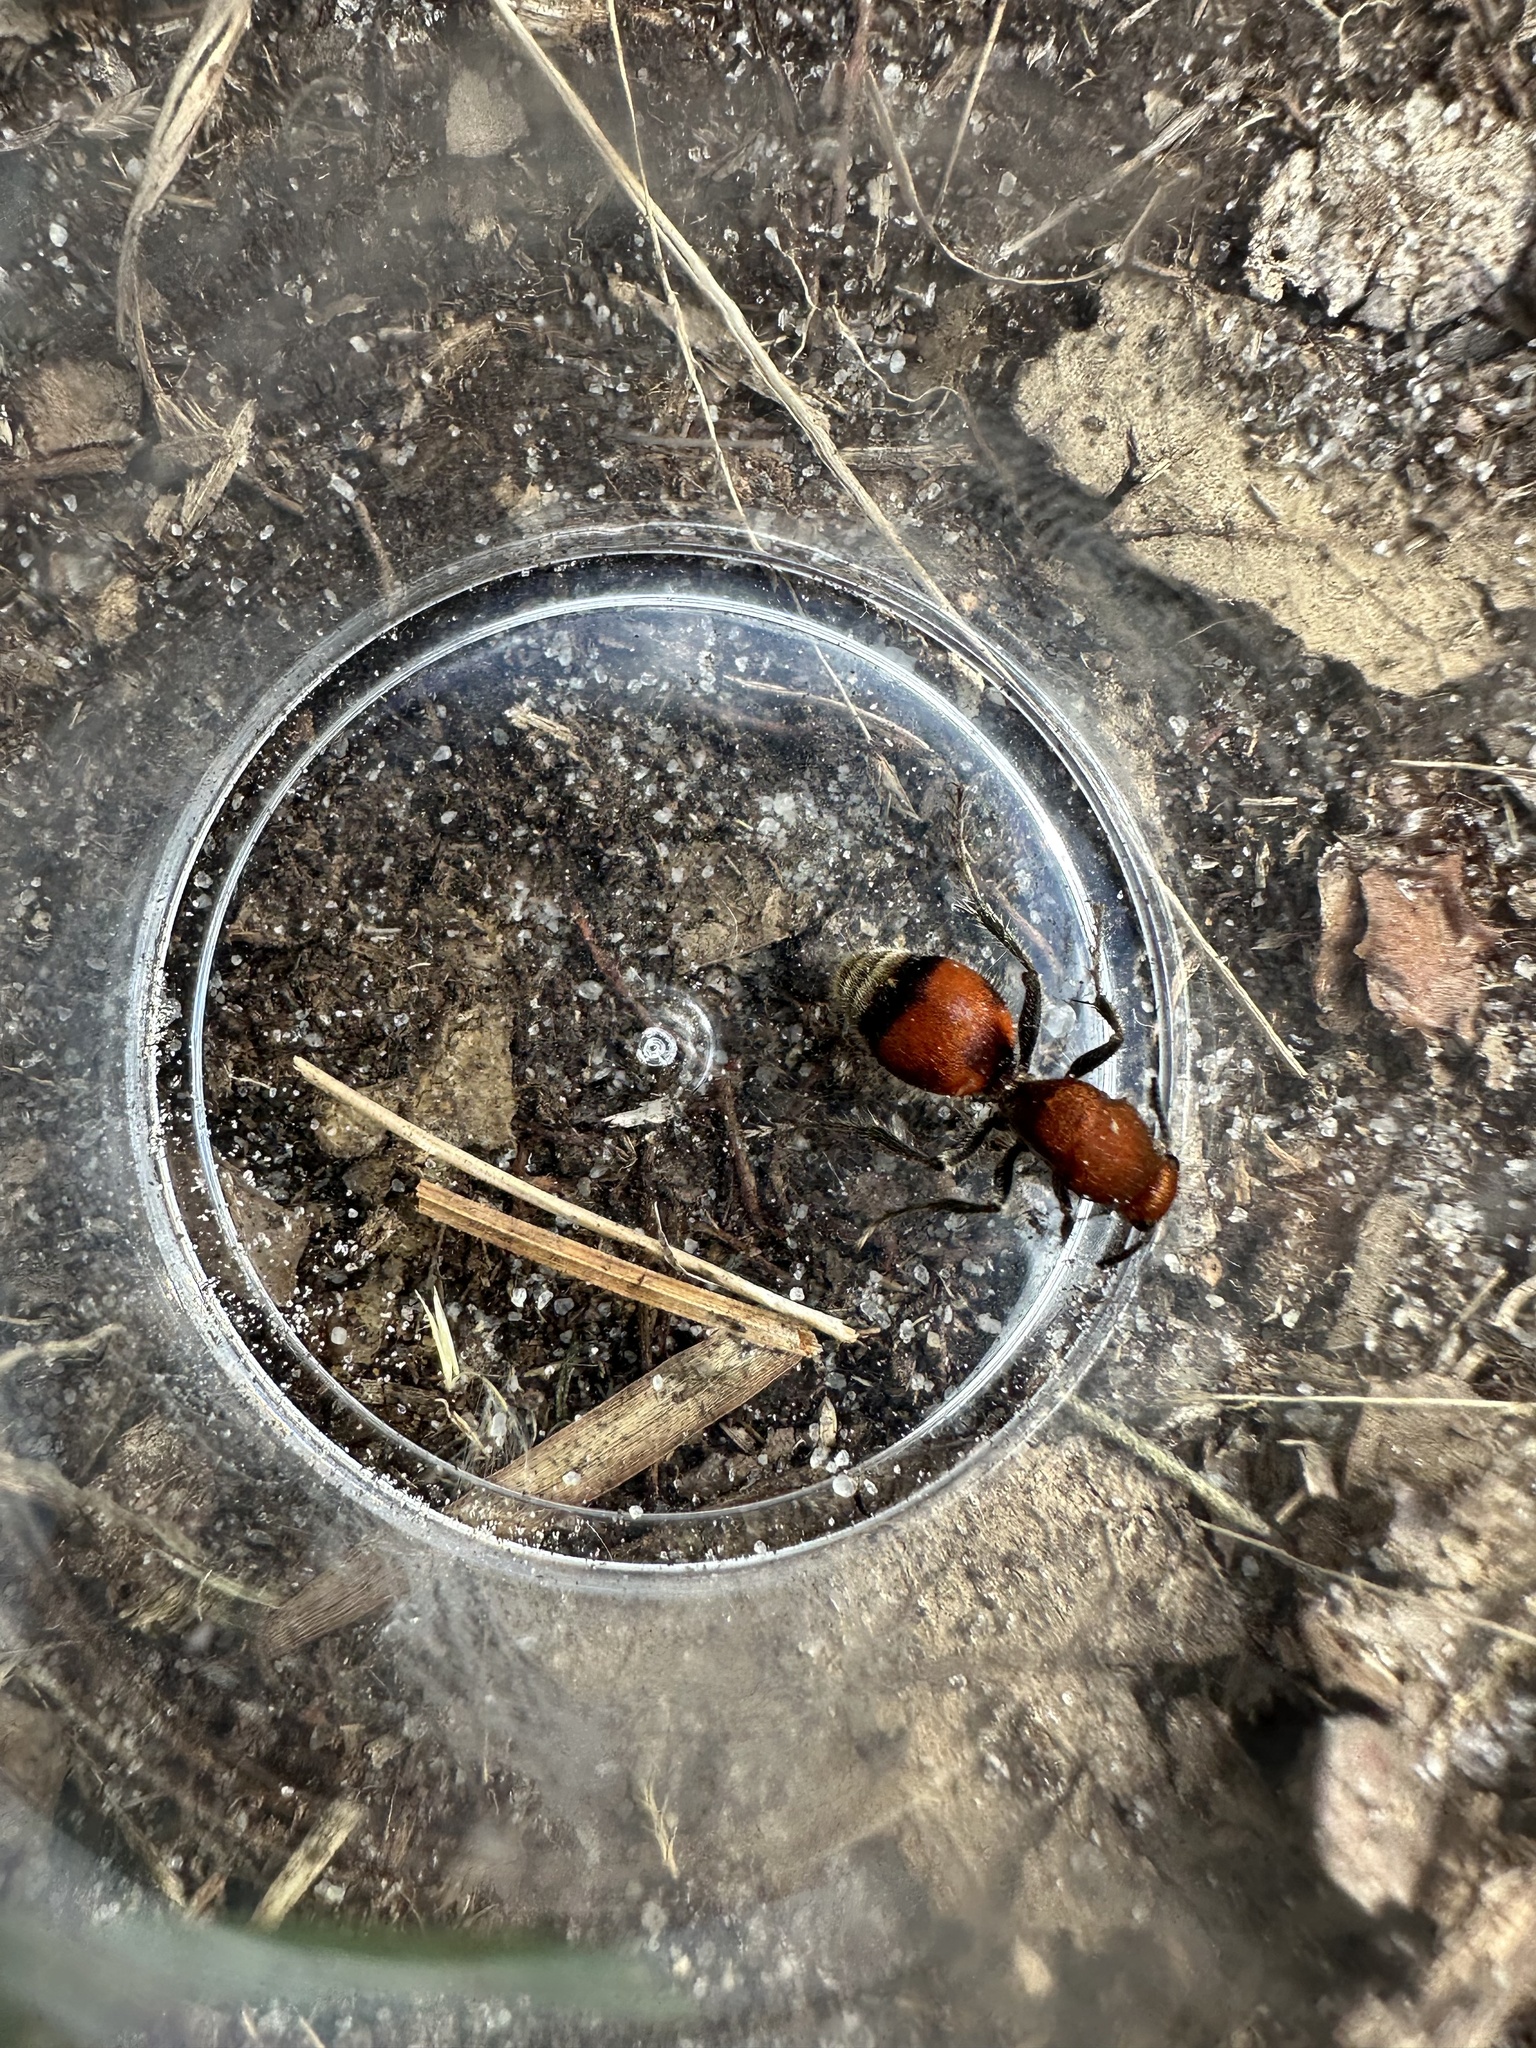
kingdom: Animalia
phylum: Arthropoda
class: Insecta
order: Hymenoptera
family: Mutillidae
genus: Dasymutilla
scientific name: Dasymutilla
